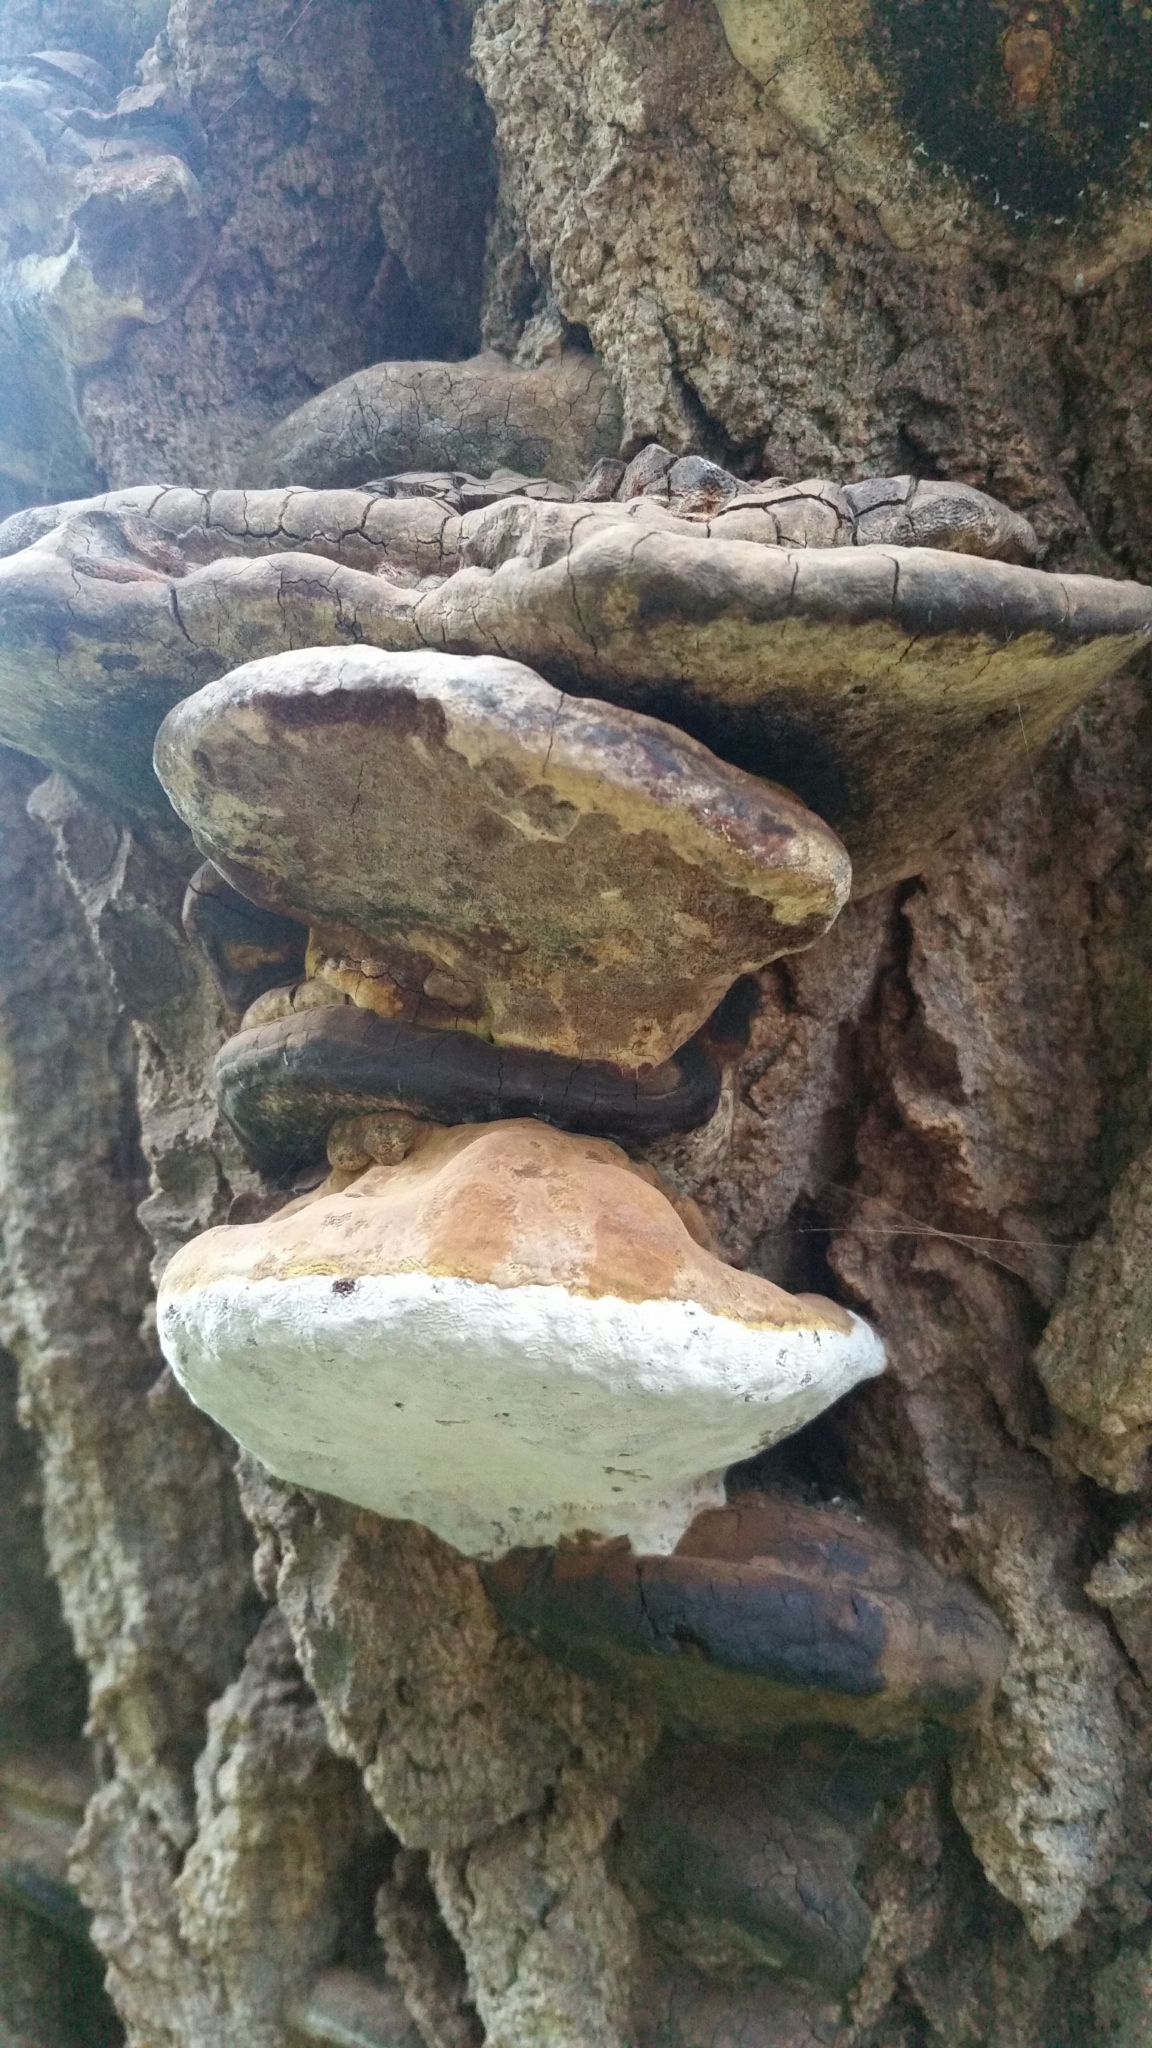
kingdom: Fungi
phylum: Basidiomycota
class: Agaricomycetes
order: Hymenochaetales
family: Hymenochaetaceae
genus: Phellinus
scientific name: Phellinus igniarius
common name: Willow bracket
